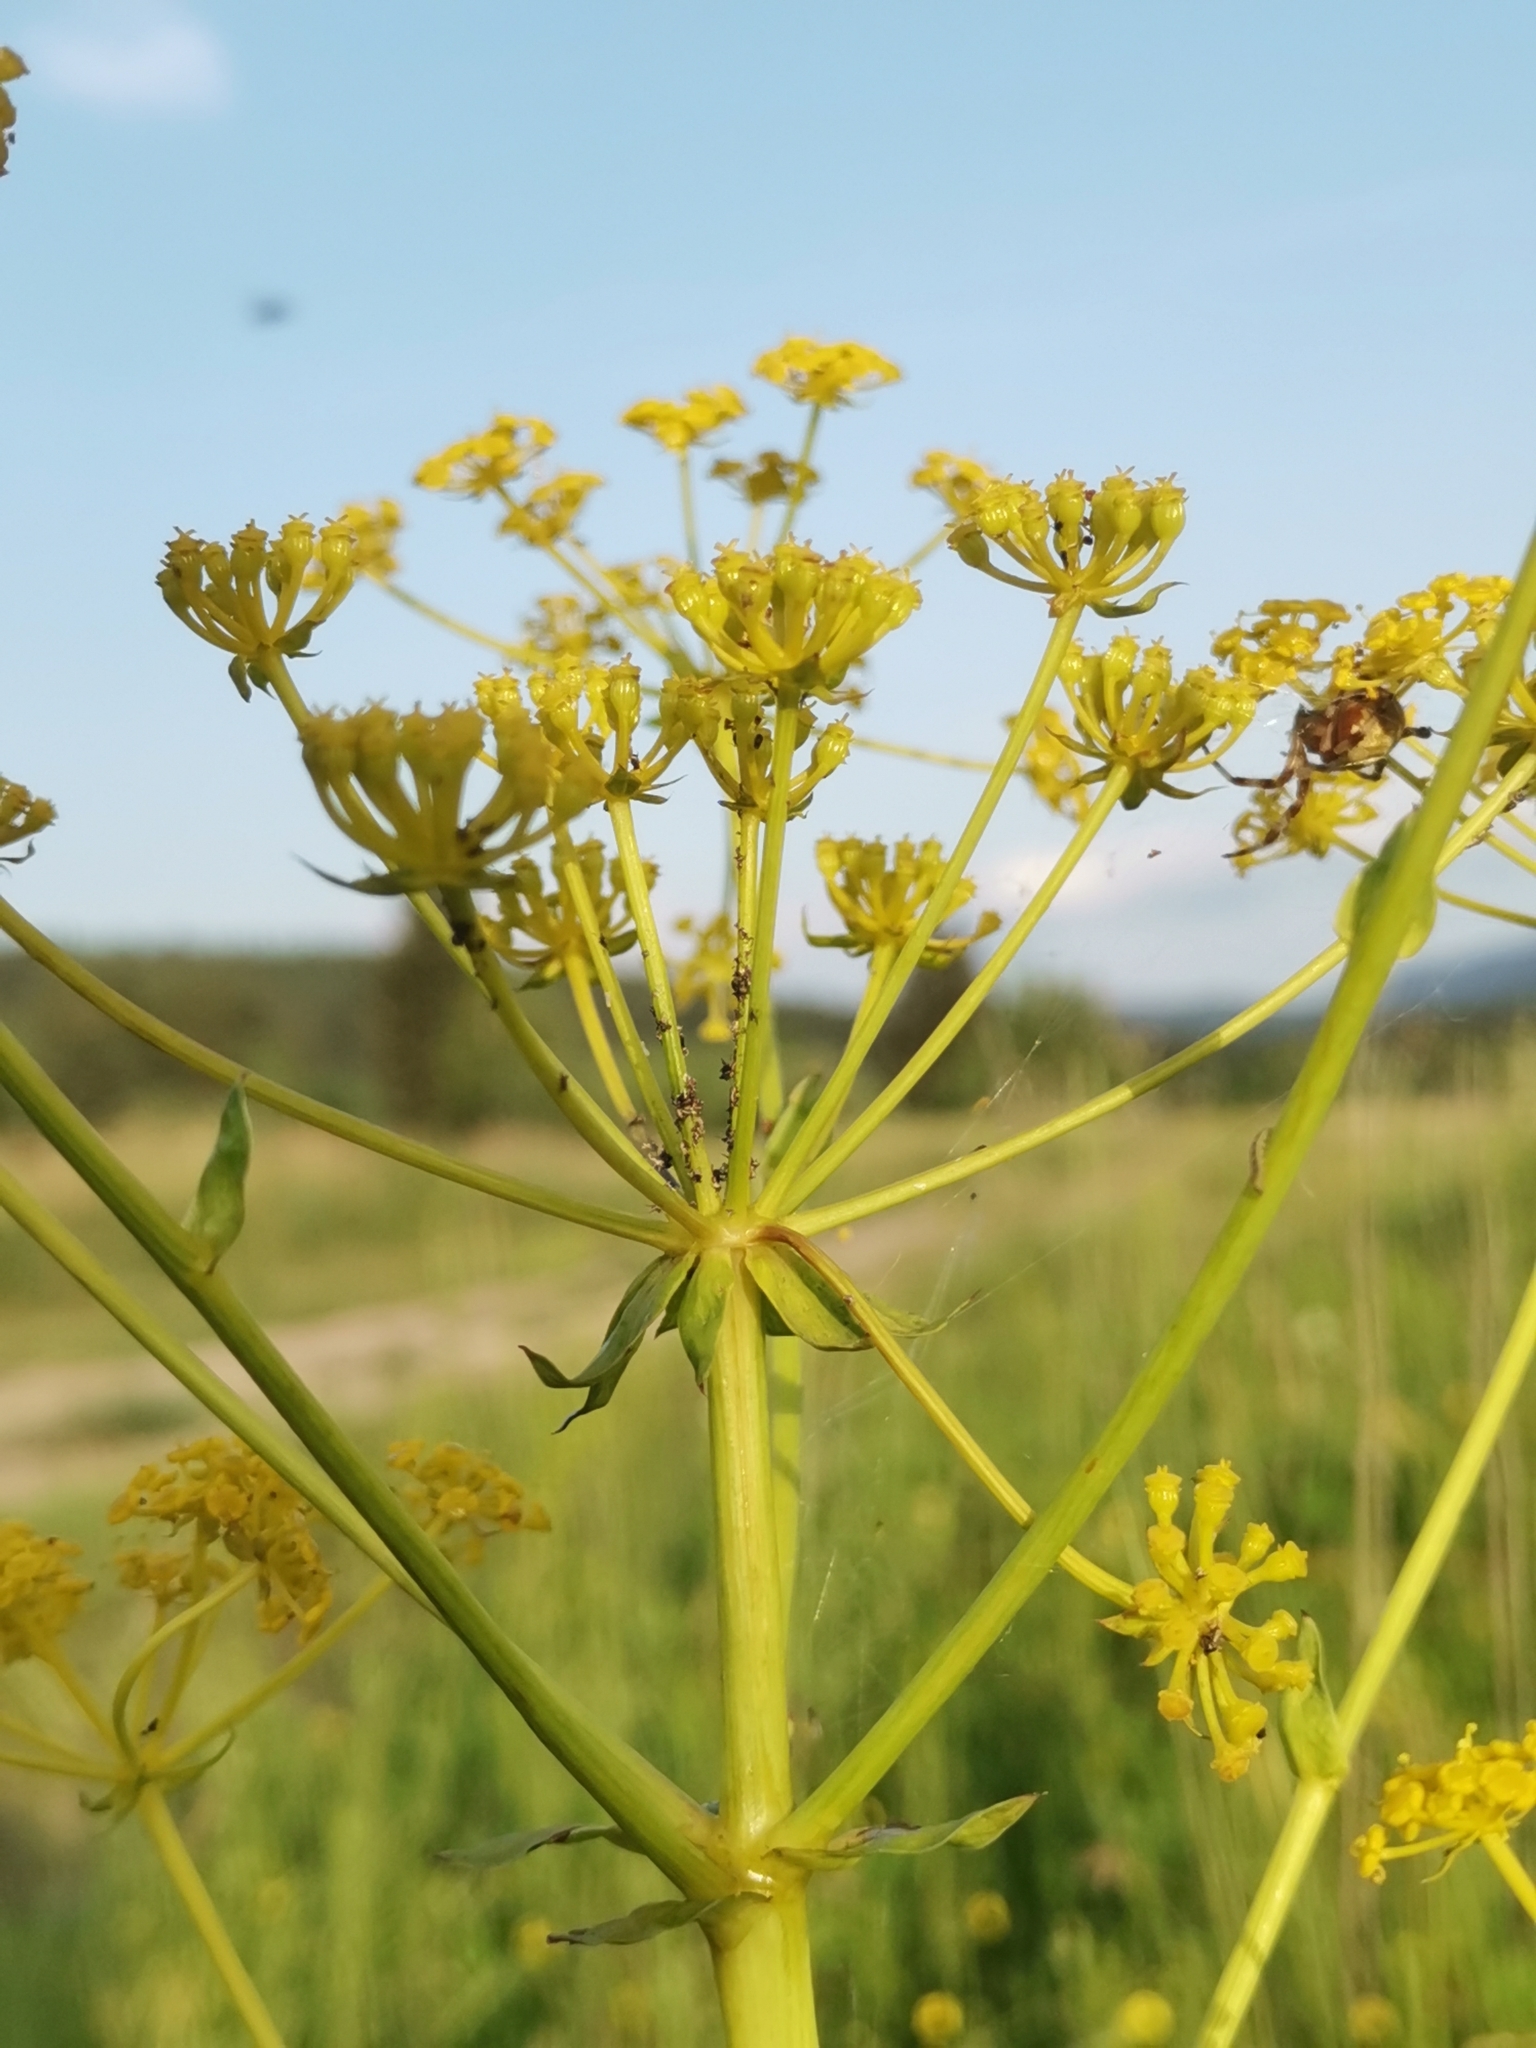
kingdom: Plantae
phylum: Tracheophyta
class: Magnoliopsida
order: Apiales
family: Apiaceae
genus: Ferulago
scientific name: Ferulago sylvatica
